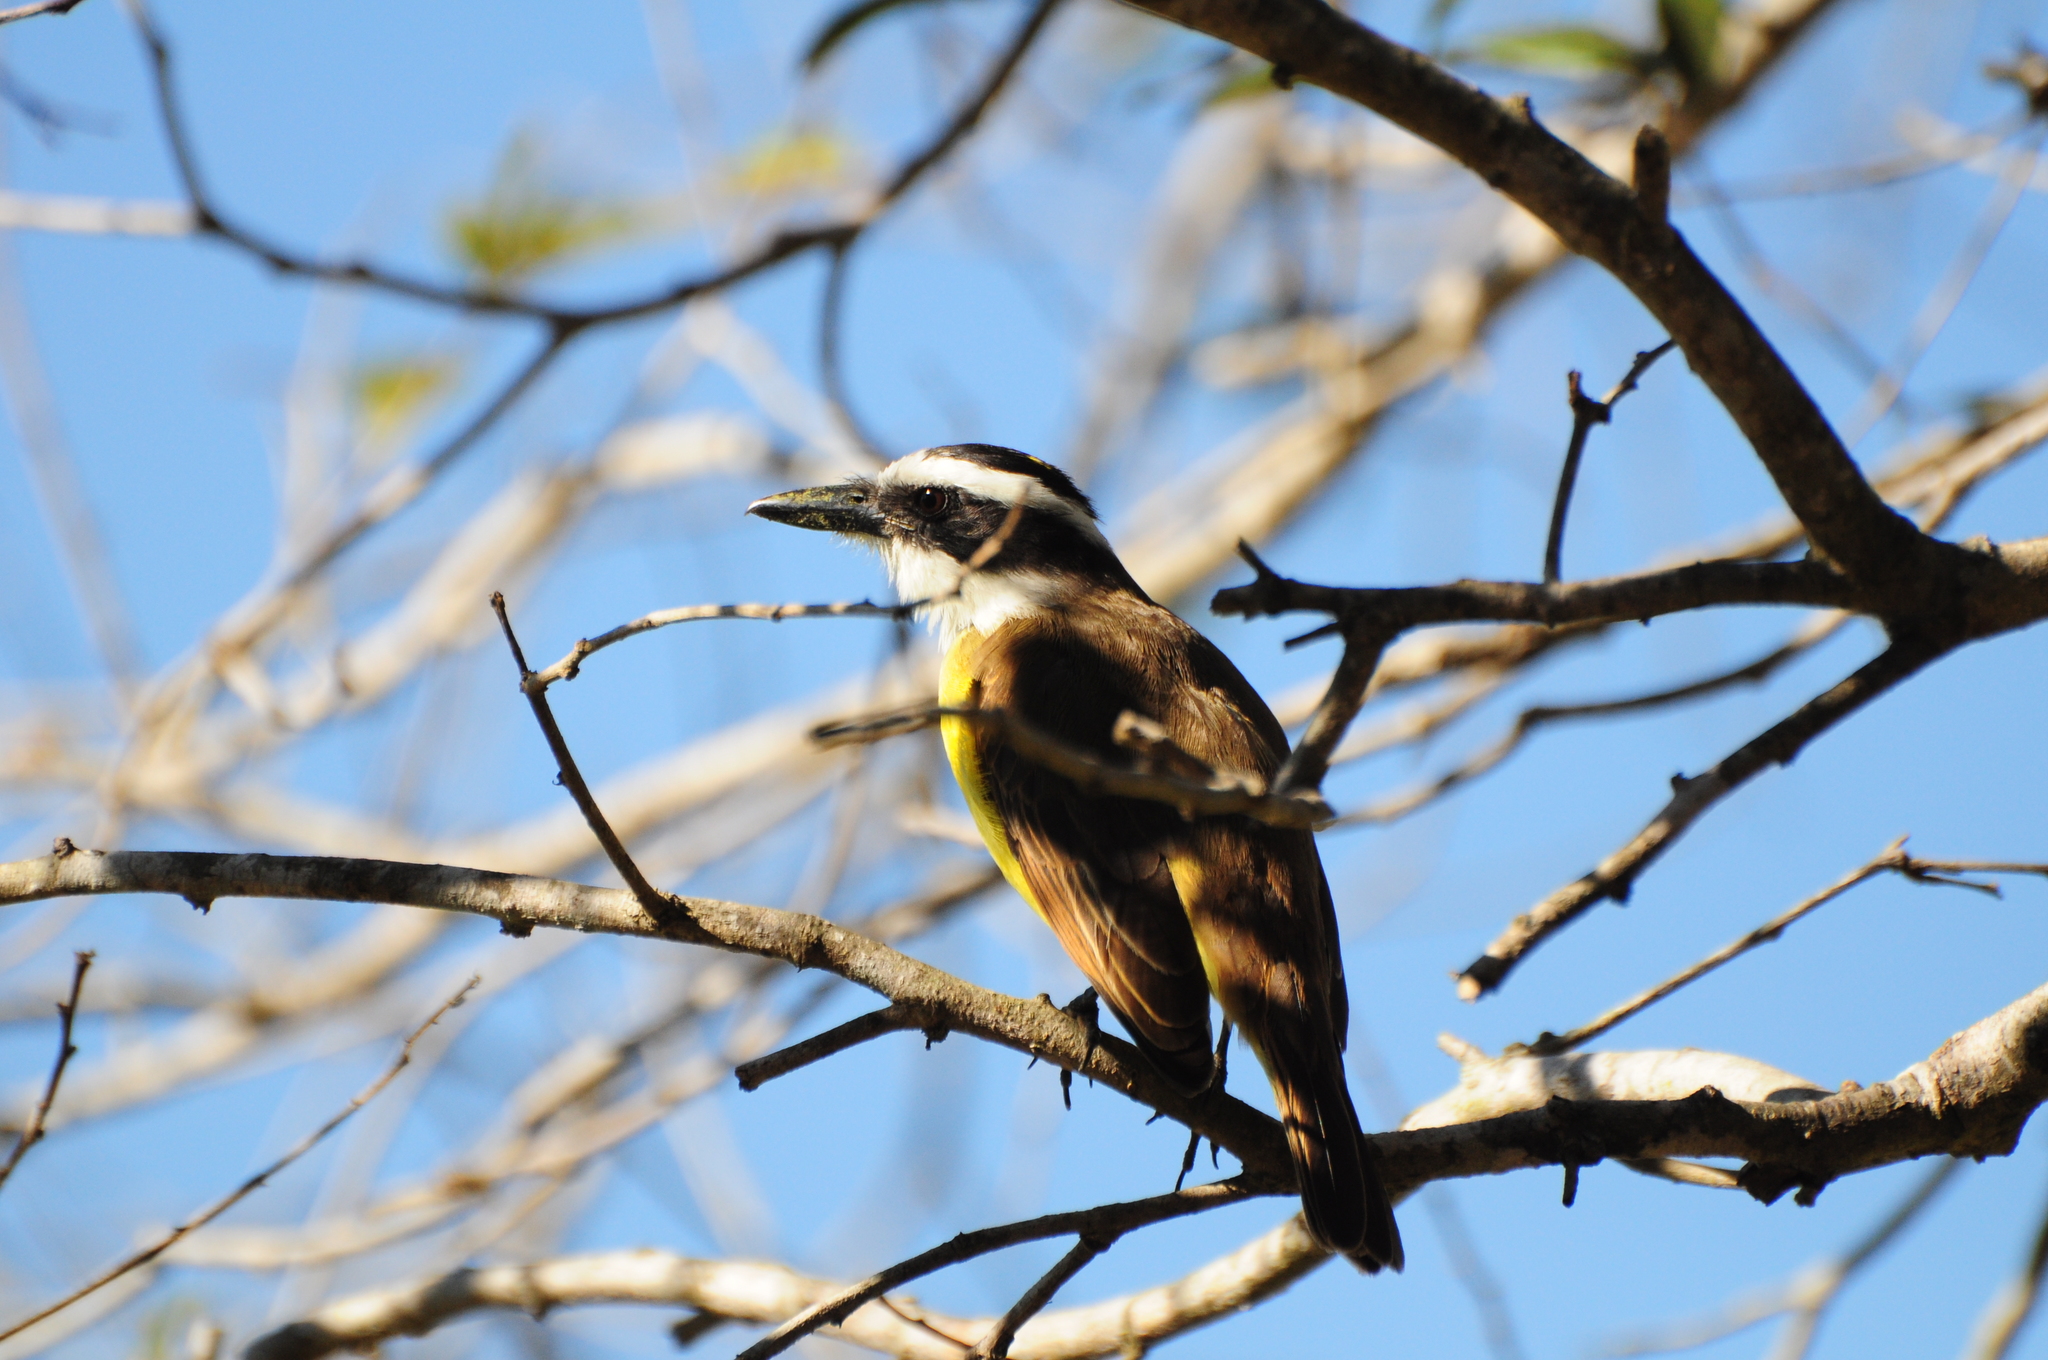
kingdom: Animalia
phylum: Chordata
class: Aves
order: Passeriformes
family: Tyrannidae
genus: Pitangus
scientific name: Pitangus sulphuratus
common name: Great kiskadee
